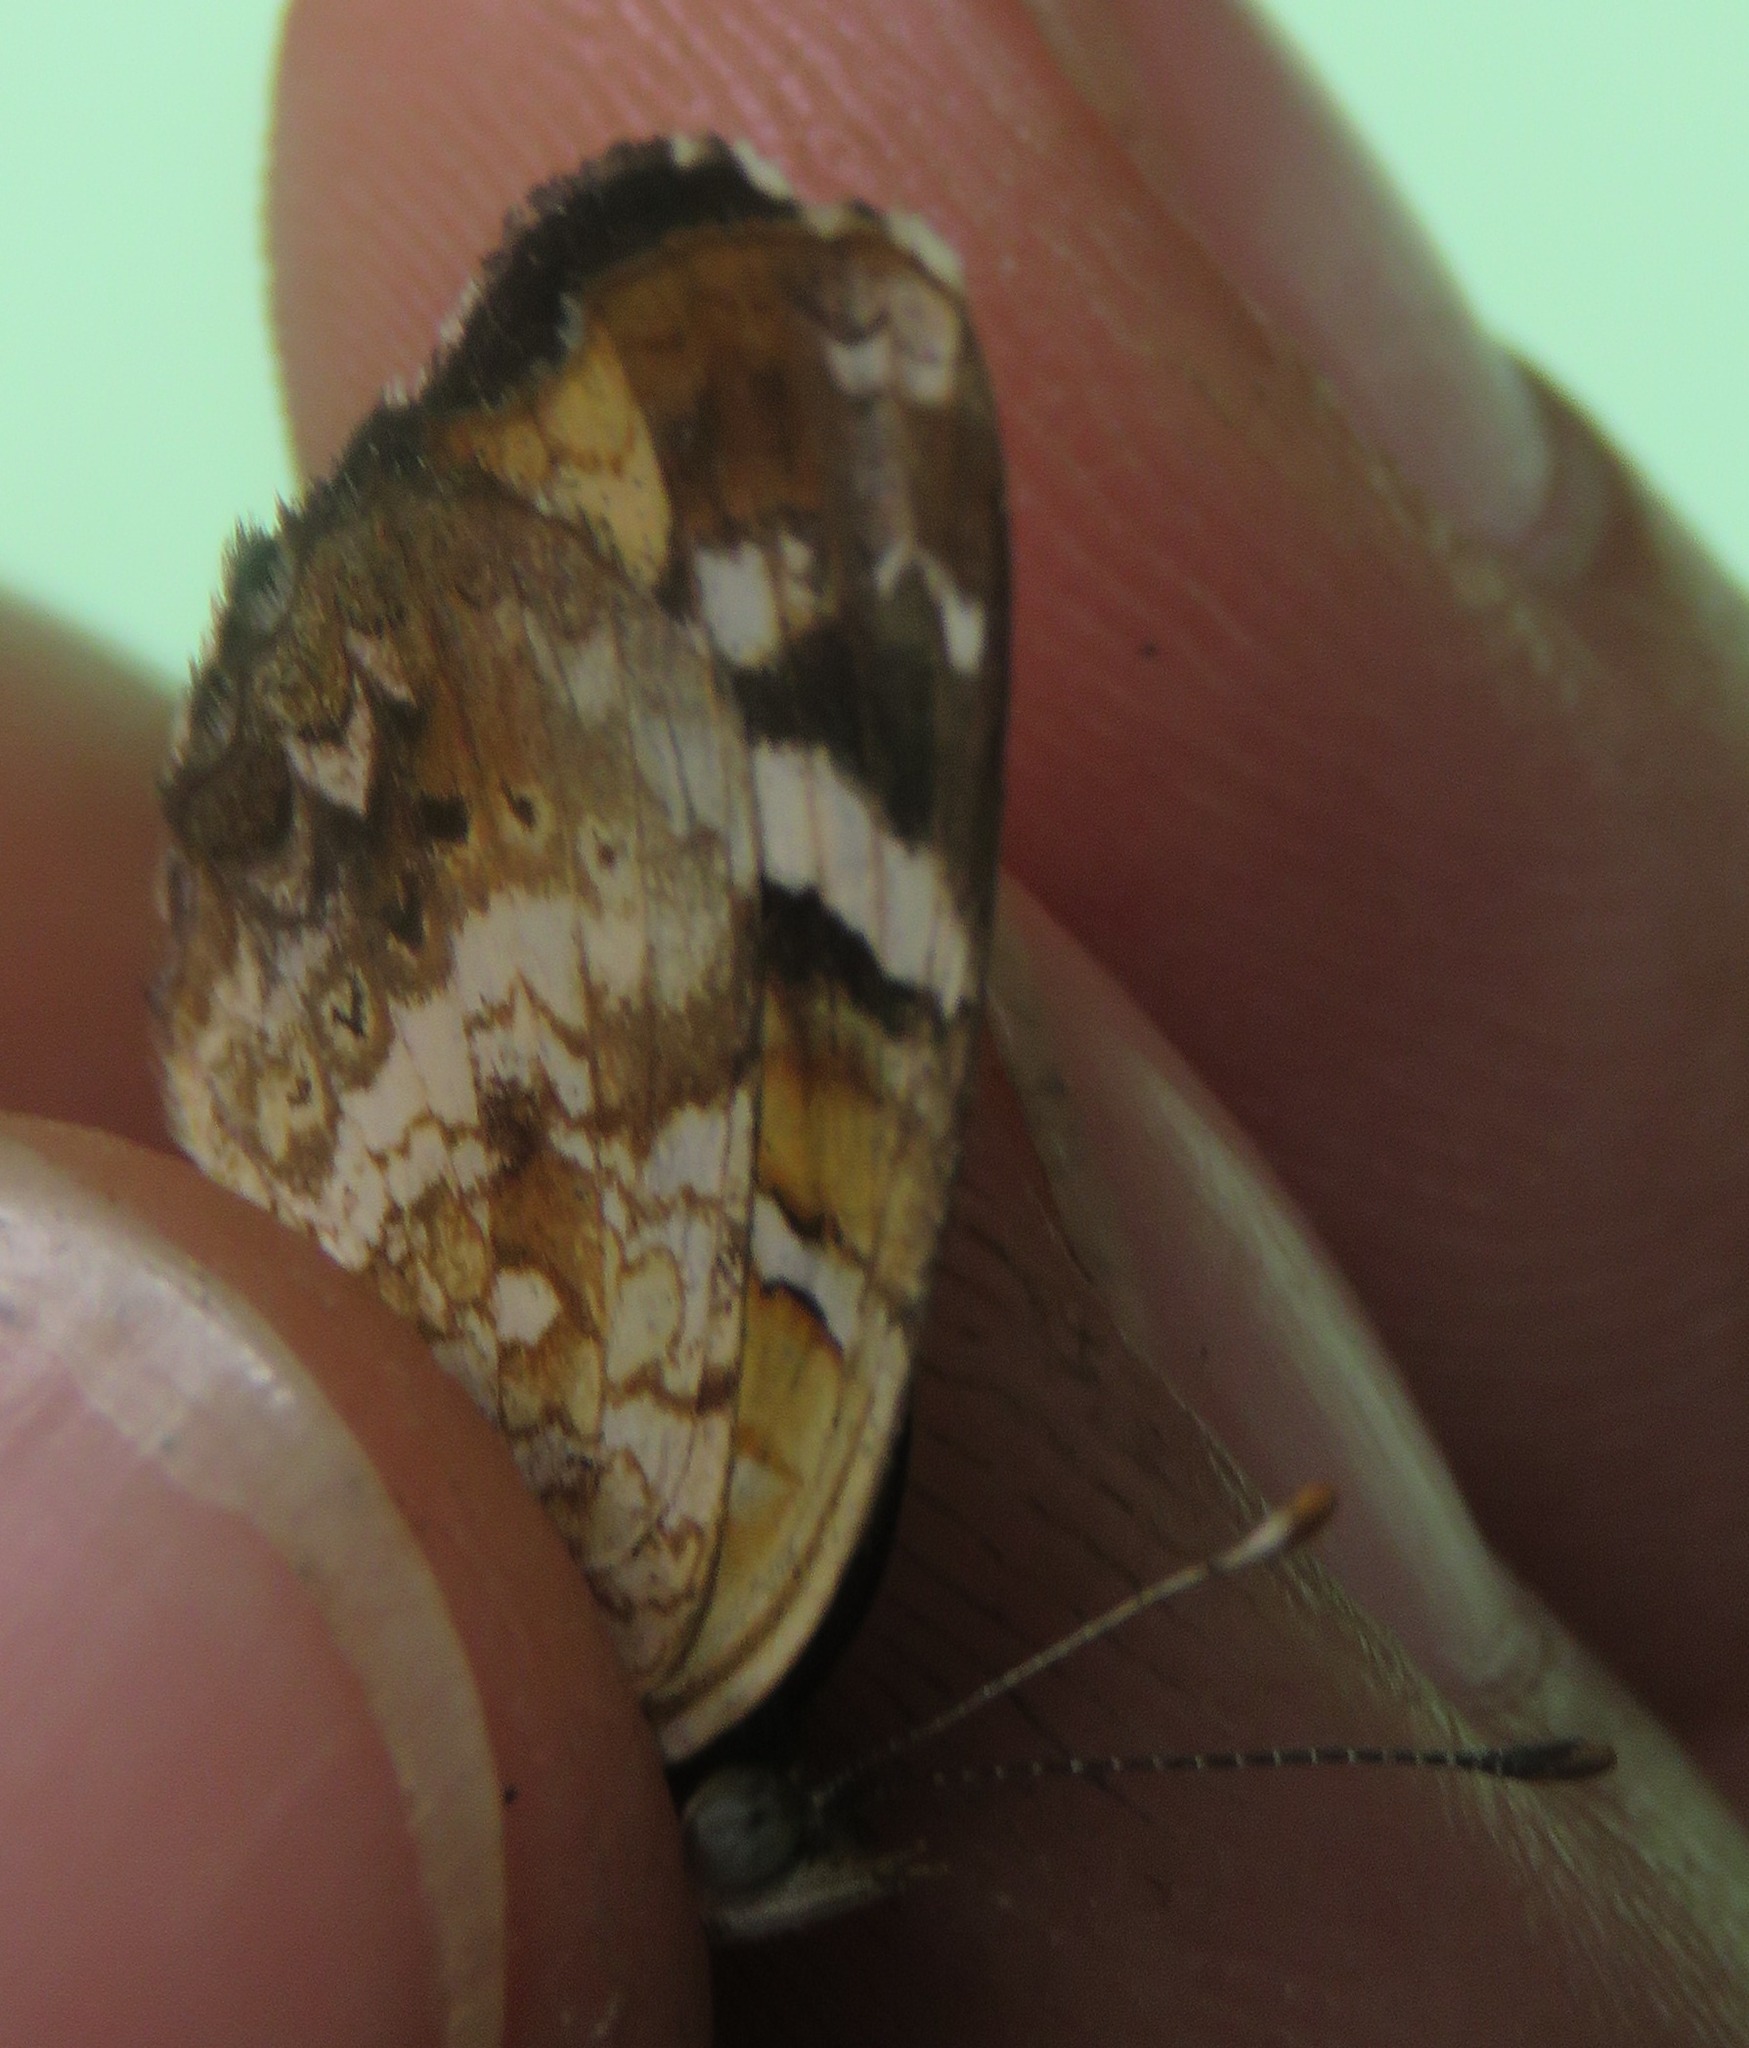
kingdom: Animalia
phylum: Arthropoda
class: Insecta
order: Lepidoptera
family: Nymphalidae
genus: Anthanassa
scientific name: Anthanassa tulcis
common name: Pale-banded crescent
